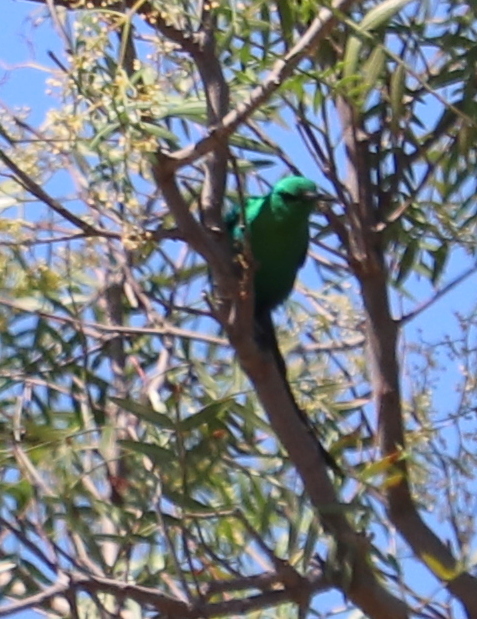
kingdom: Animalia
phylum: Chordata
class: Aves
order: Passeriformes
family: Nectariniidae
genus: Nectarinia
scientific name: Nectarinia famosa
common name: Malachite sunbird
